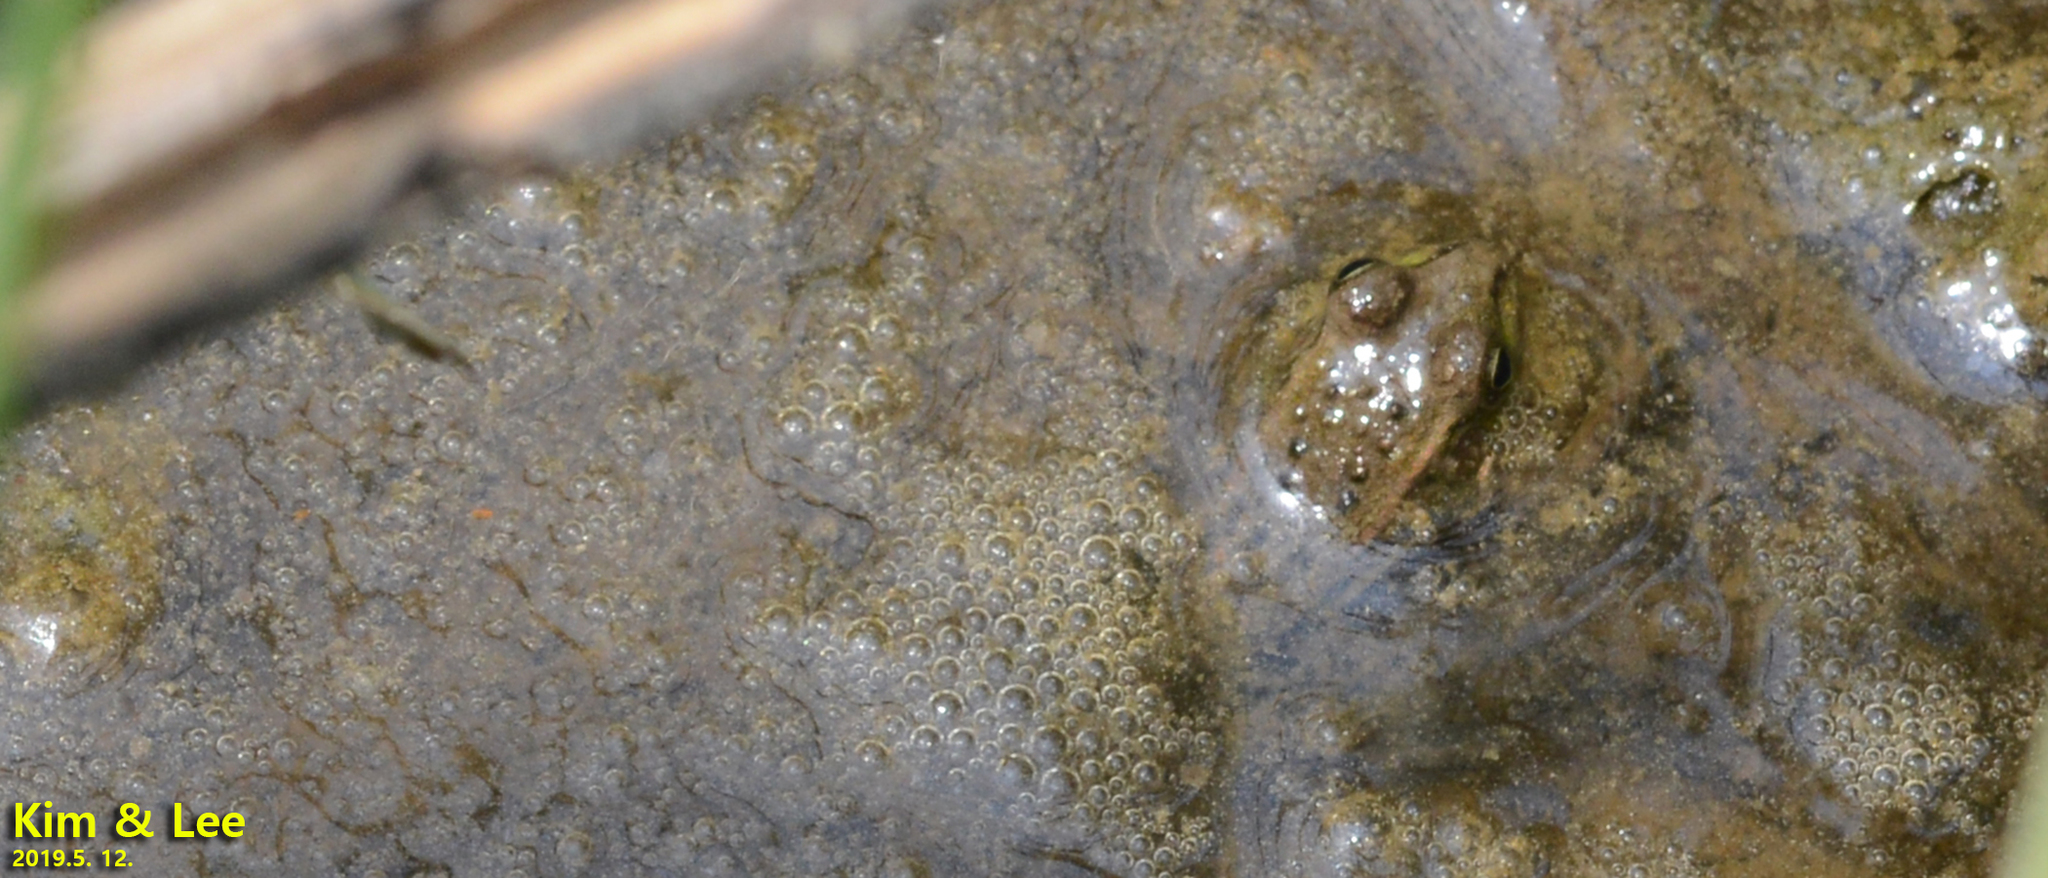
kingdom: Animalia
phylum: Chordata
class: Amphibia
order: Anura
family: Ranidae
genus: Pelophylax
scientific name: Pelophylax chosenicus
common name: Gold-spotted pond frog
